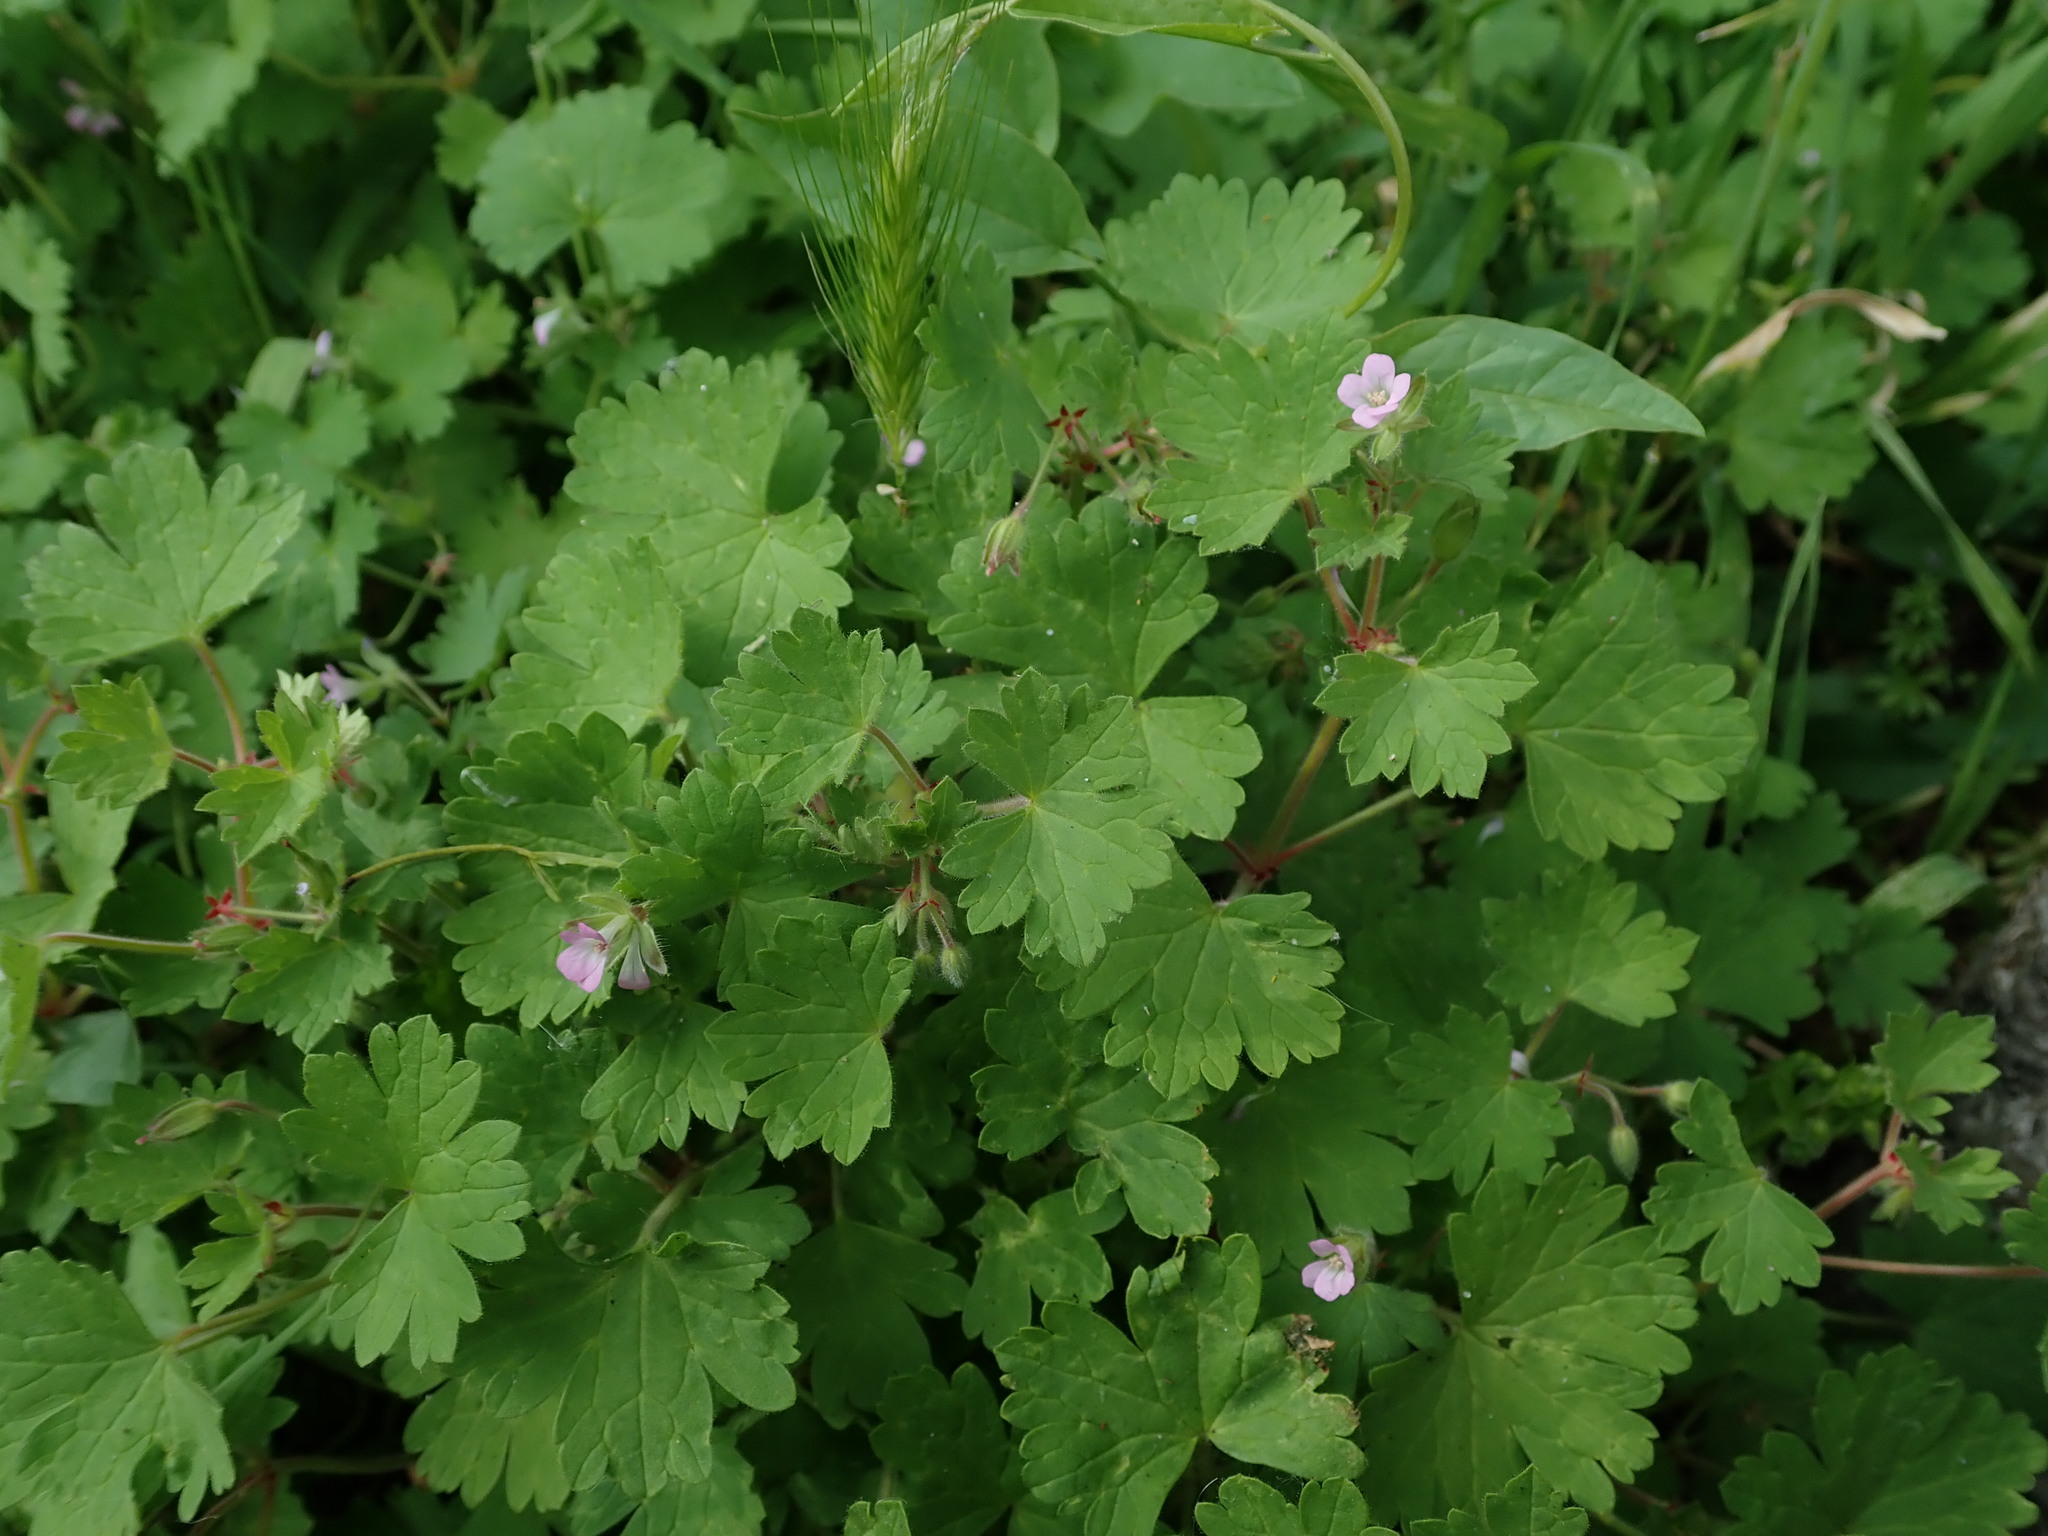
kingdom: Plantae
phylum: Tracheophyta
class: Magnoliopsida
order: Geraniales
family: Geraniaceae
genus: Geranium
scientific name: Geranium rotundifolium
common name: Round-leaved crane's-bill
